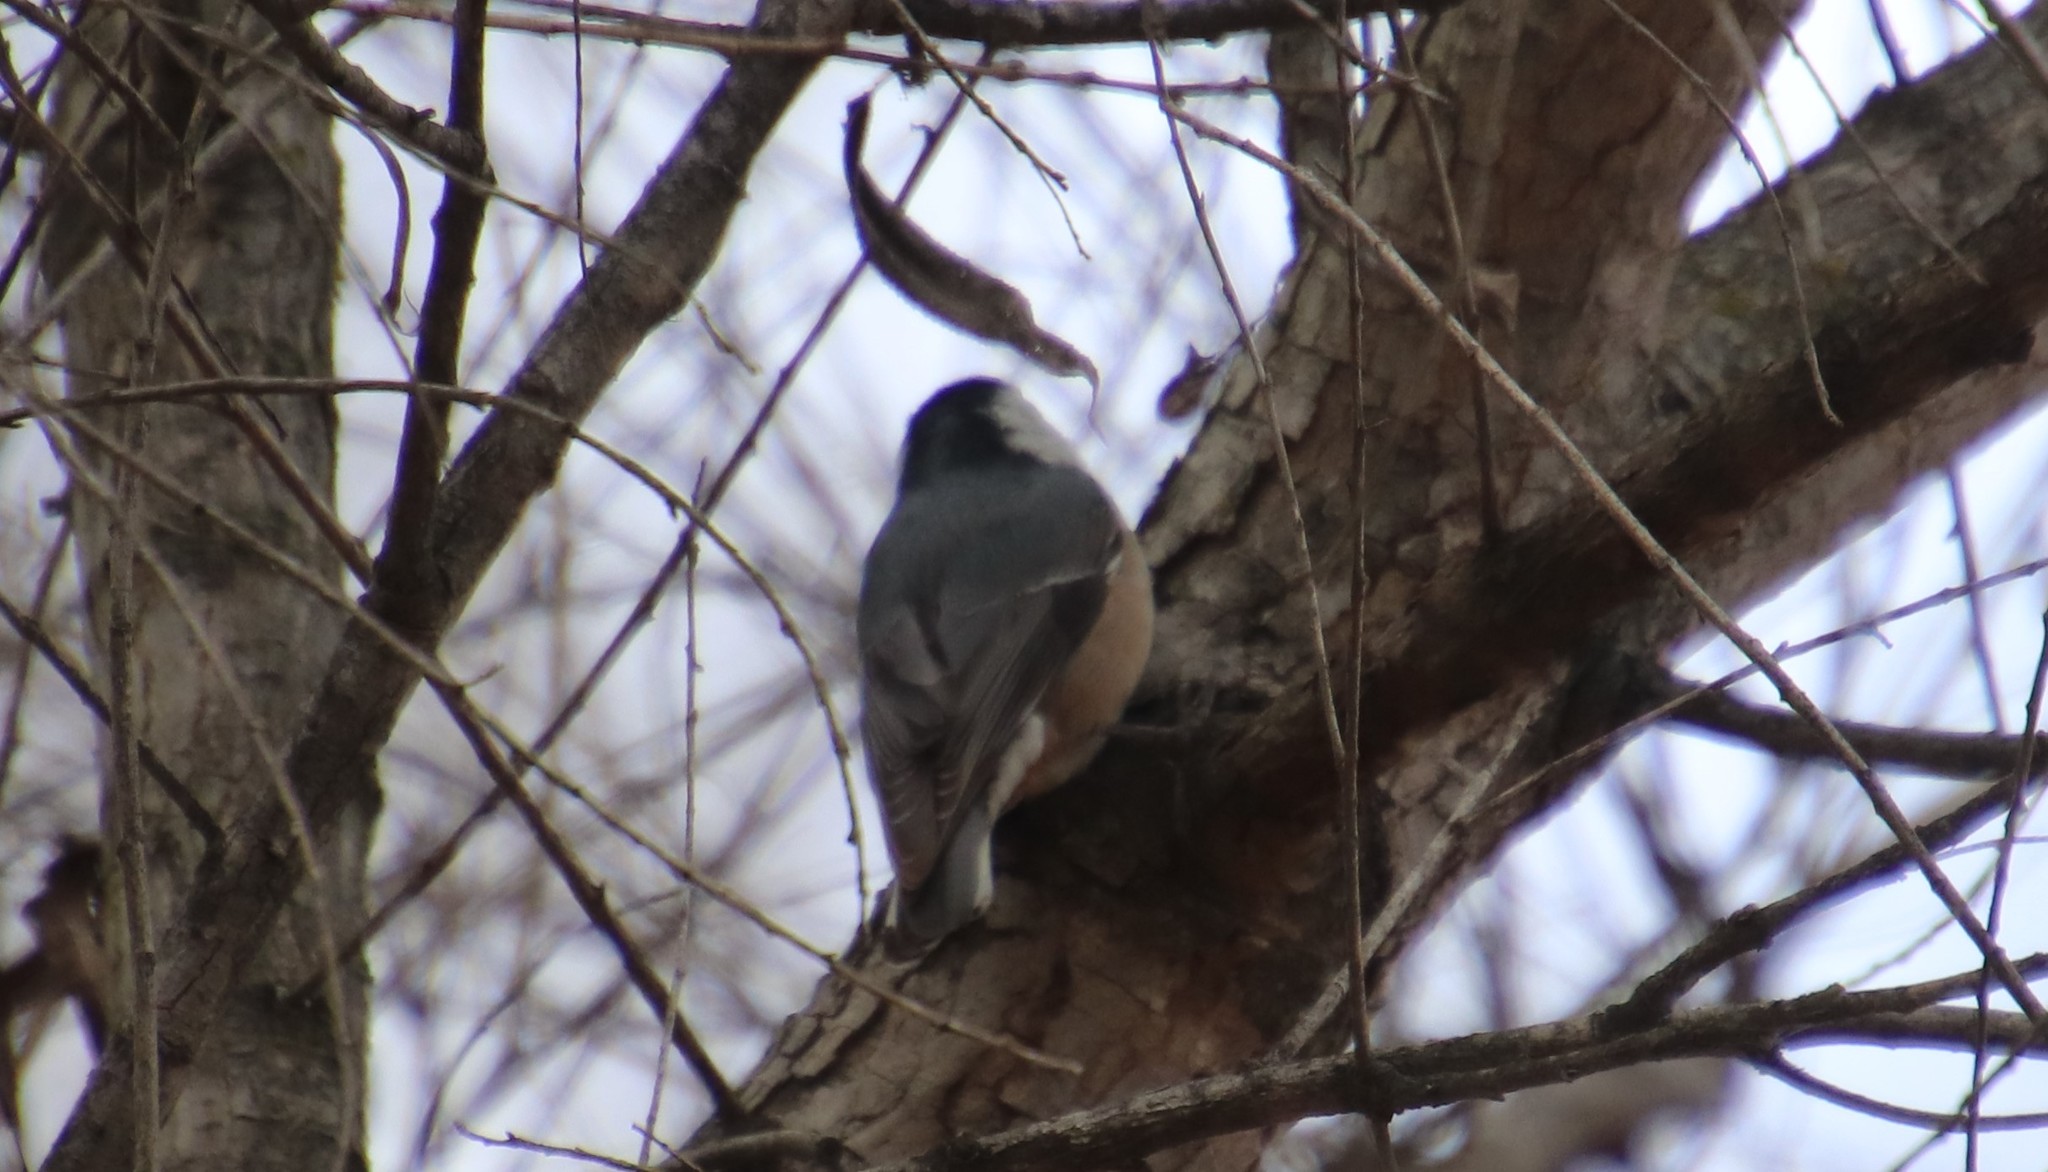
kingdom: Animalia
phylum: Chordata
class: Aves
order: Passeriformes
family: Sittidae
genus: Sitta
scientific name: Sitta carolinensis
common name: White-breasted nuthatch
